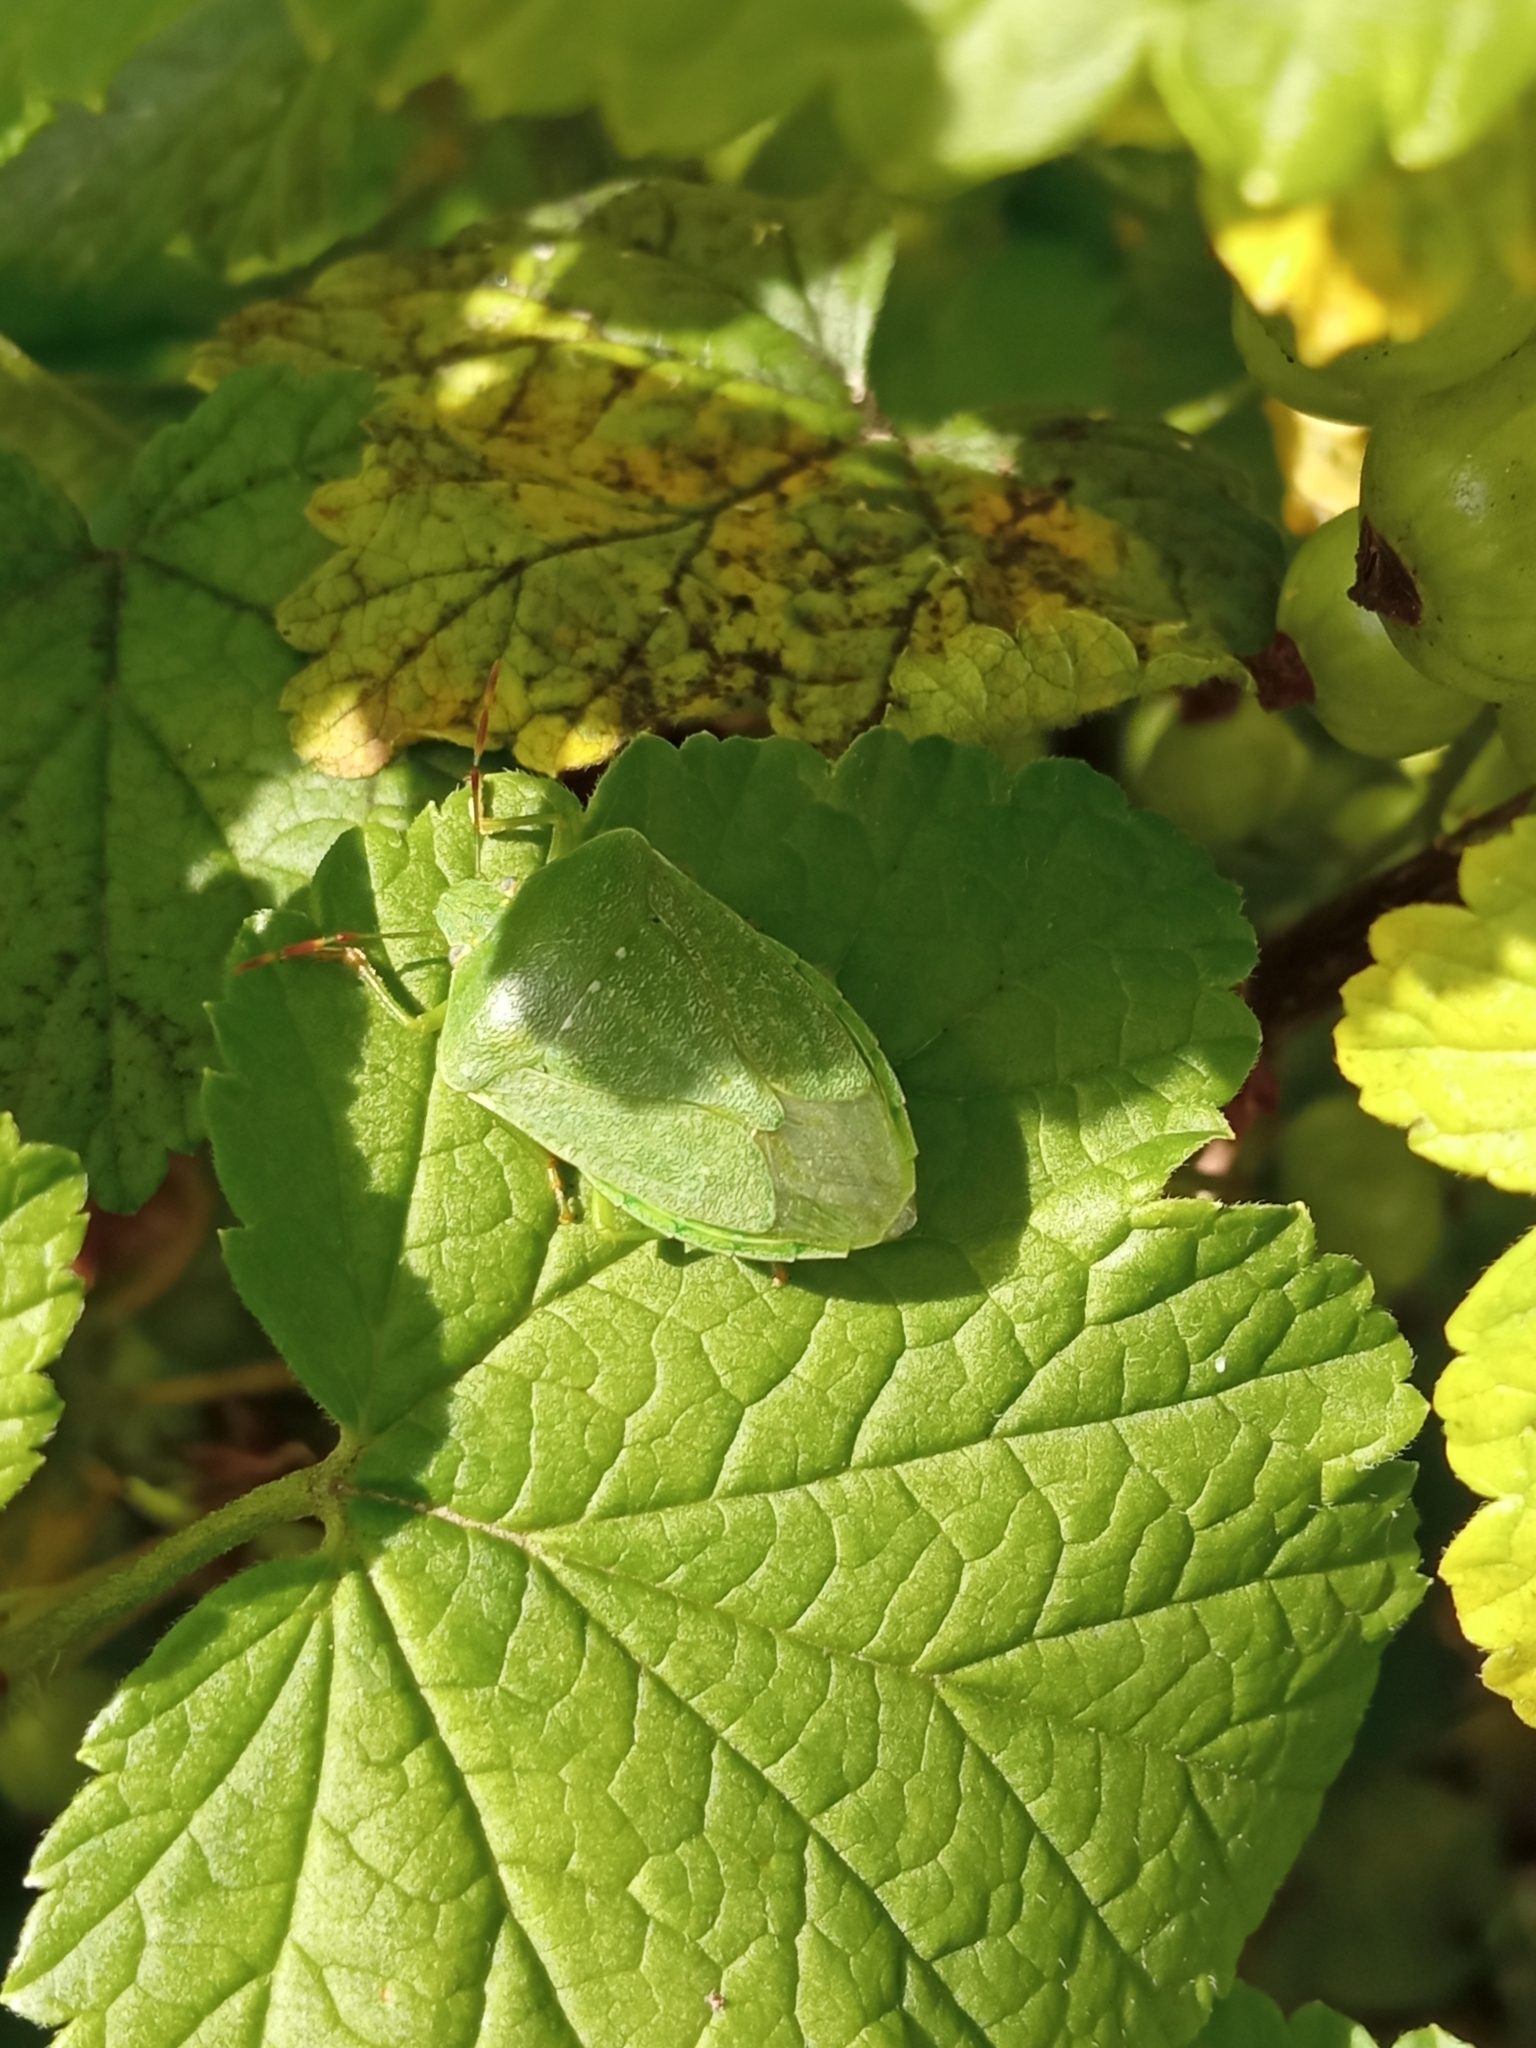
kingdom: Animalia
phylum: Arthropoda
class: Insecta
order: Hemiptera
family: Pentatomidae
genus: Nezara
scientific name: Nezara viridula
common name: Southern green stink bug
